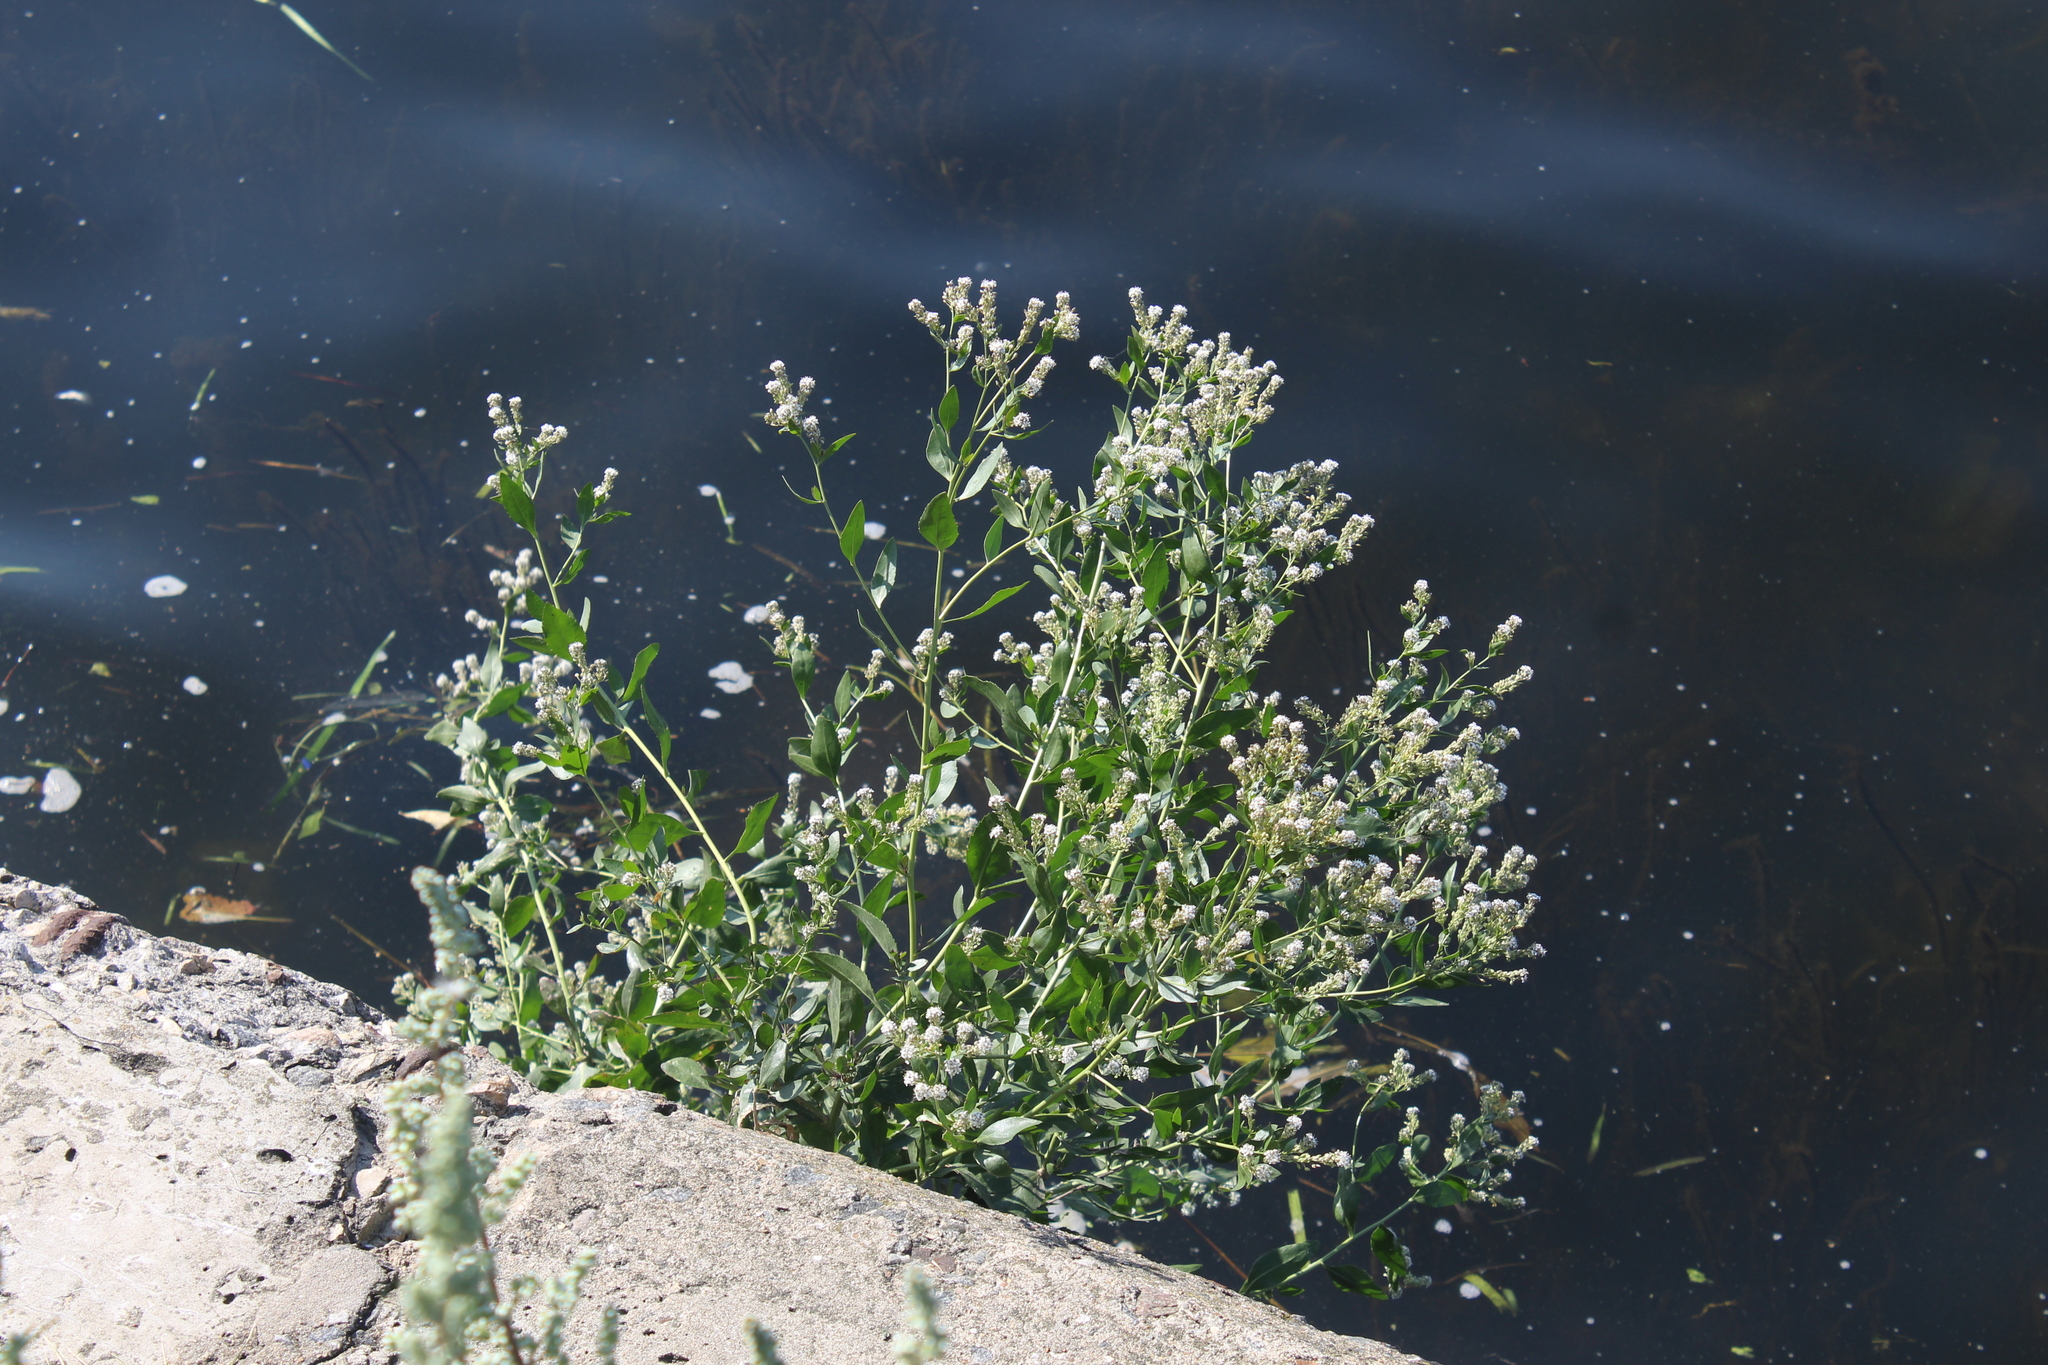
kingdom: Plantae
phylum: Tracheophyta
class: Magnoliopsida
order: Brassicales
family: Brassicaceae
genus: Lepidium
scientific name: Lepidium latifolium
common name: Dittander
